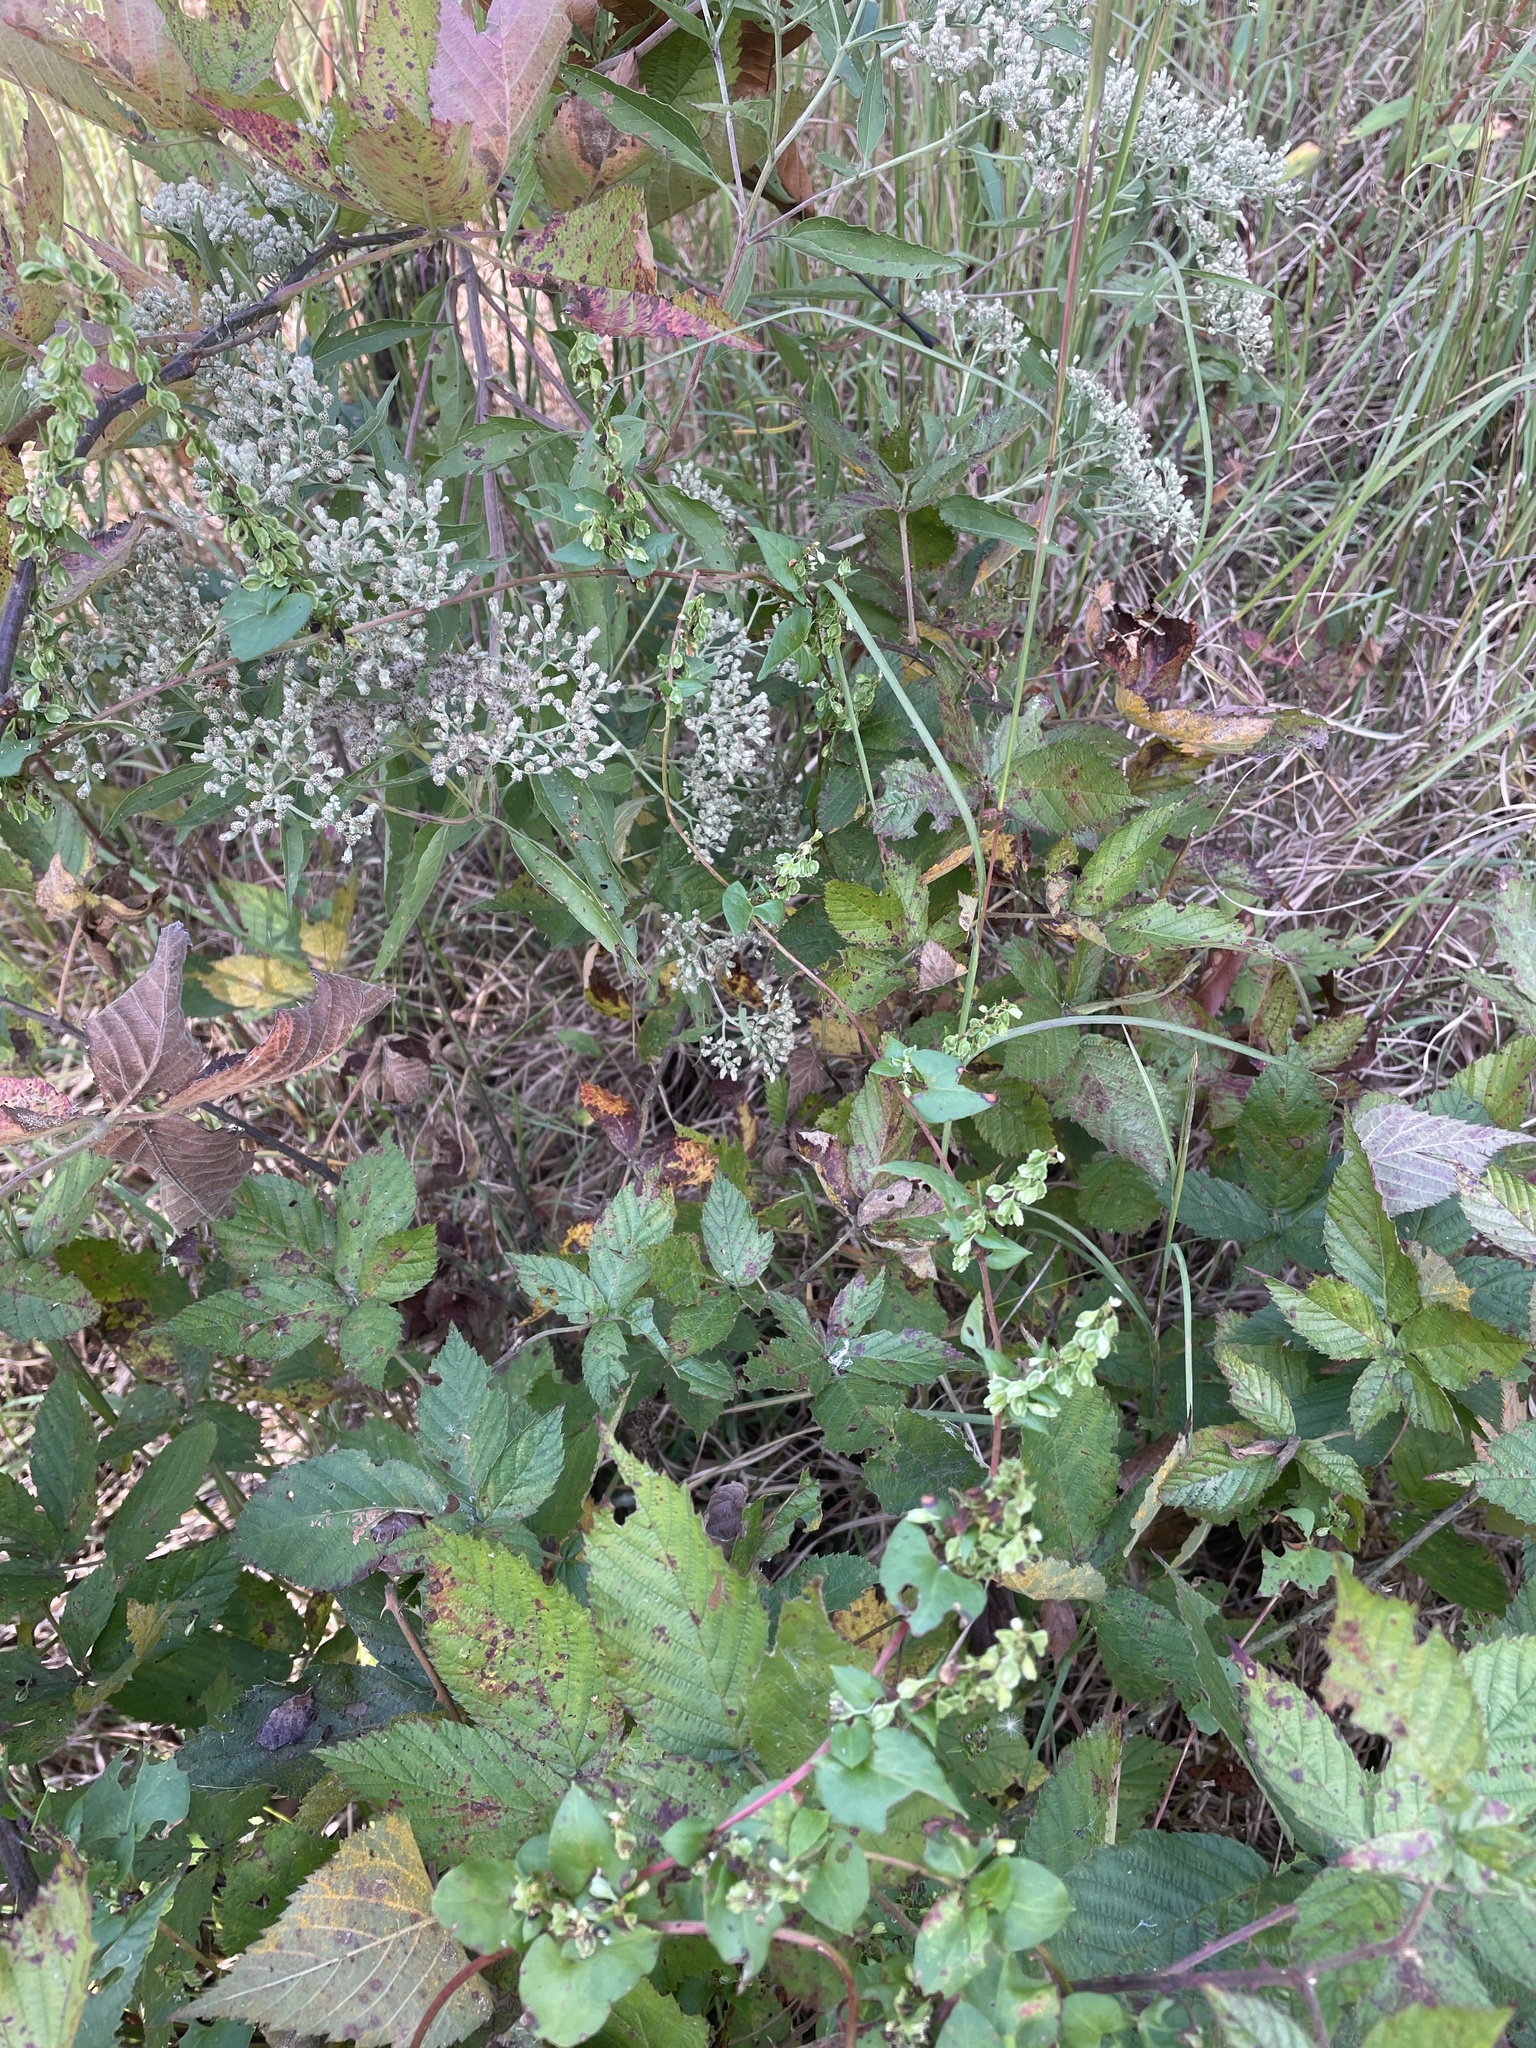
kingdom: Plantae
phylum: Tracheophyta
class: Magnoliopsida
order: Caryophyllales
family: Polygonaceae
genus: Fallopia
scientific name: Fallopia scandens
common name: Climbing false buckwheat
